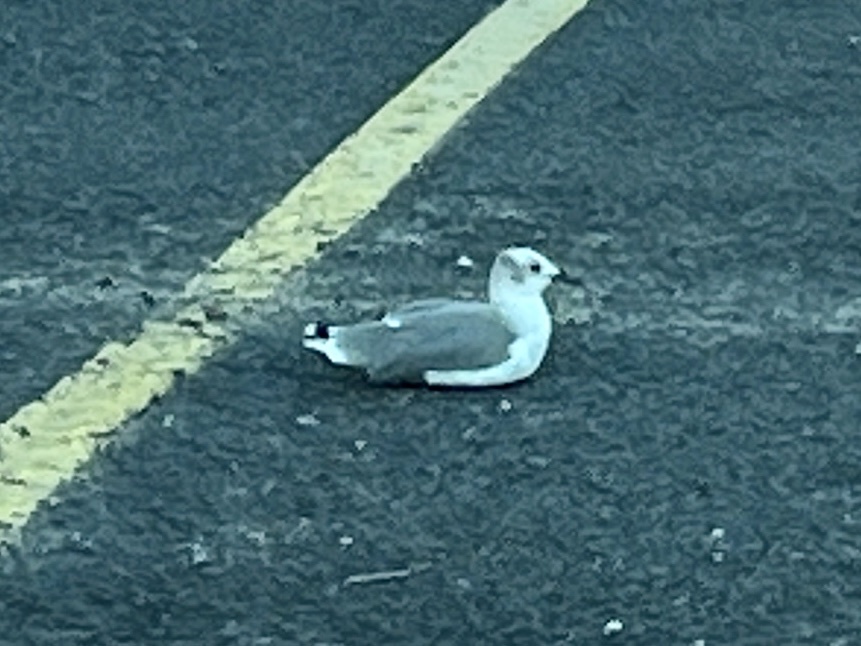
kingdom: Animalia
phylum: Chordata
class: Aves
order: Charadriiformes
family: Laridae
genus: Leucophaeus
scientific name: Leucophaeus atricilla
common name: Laughing gull
